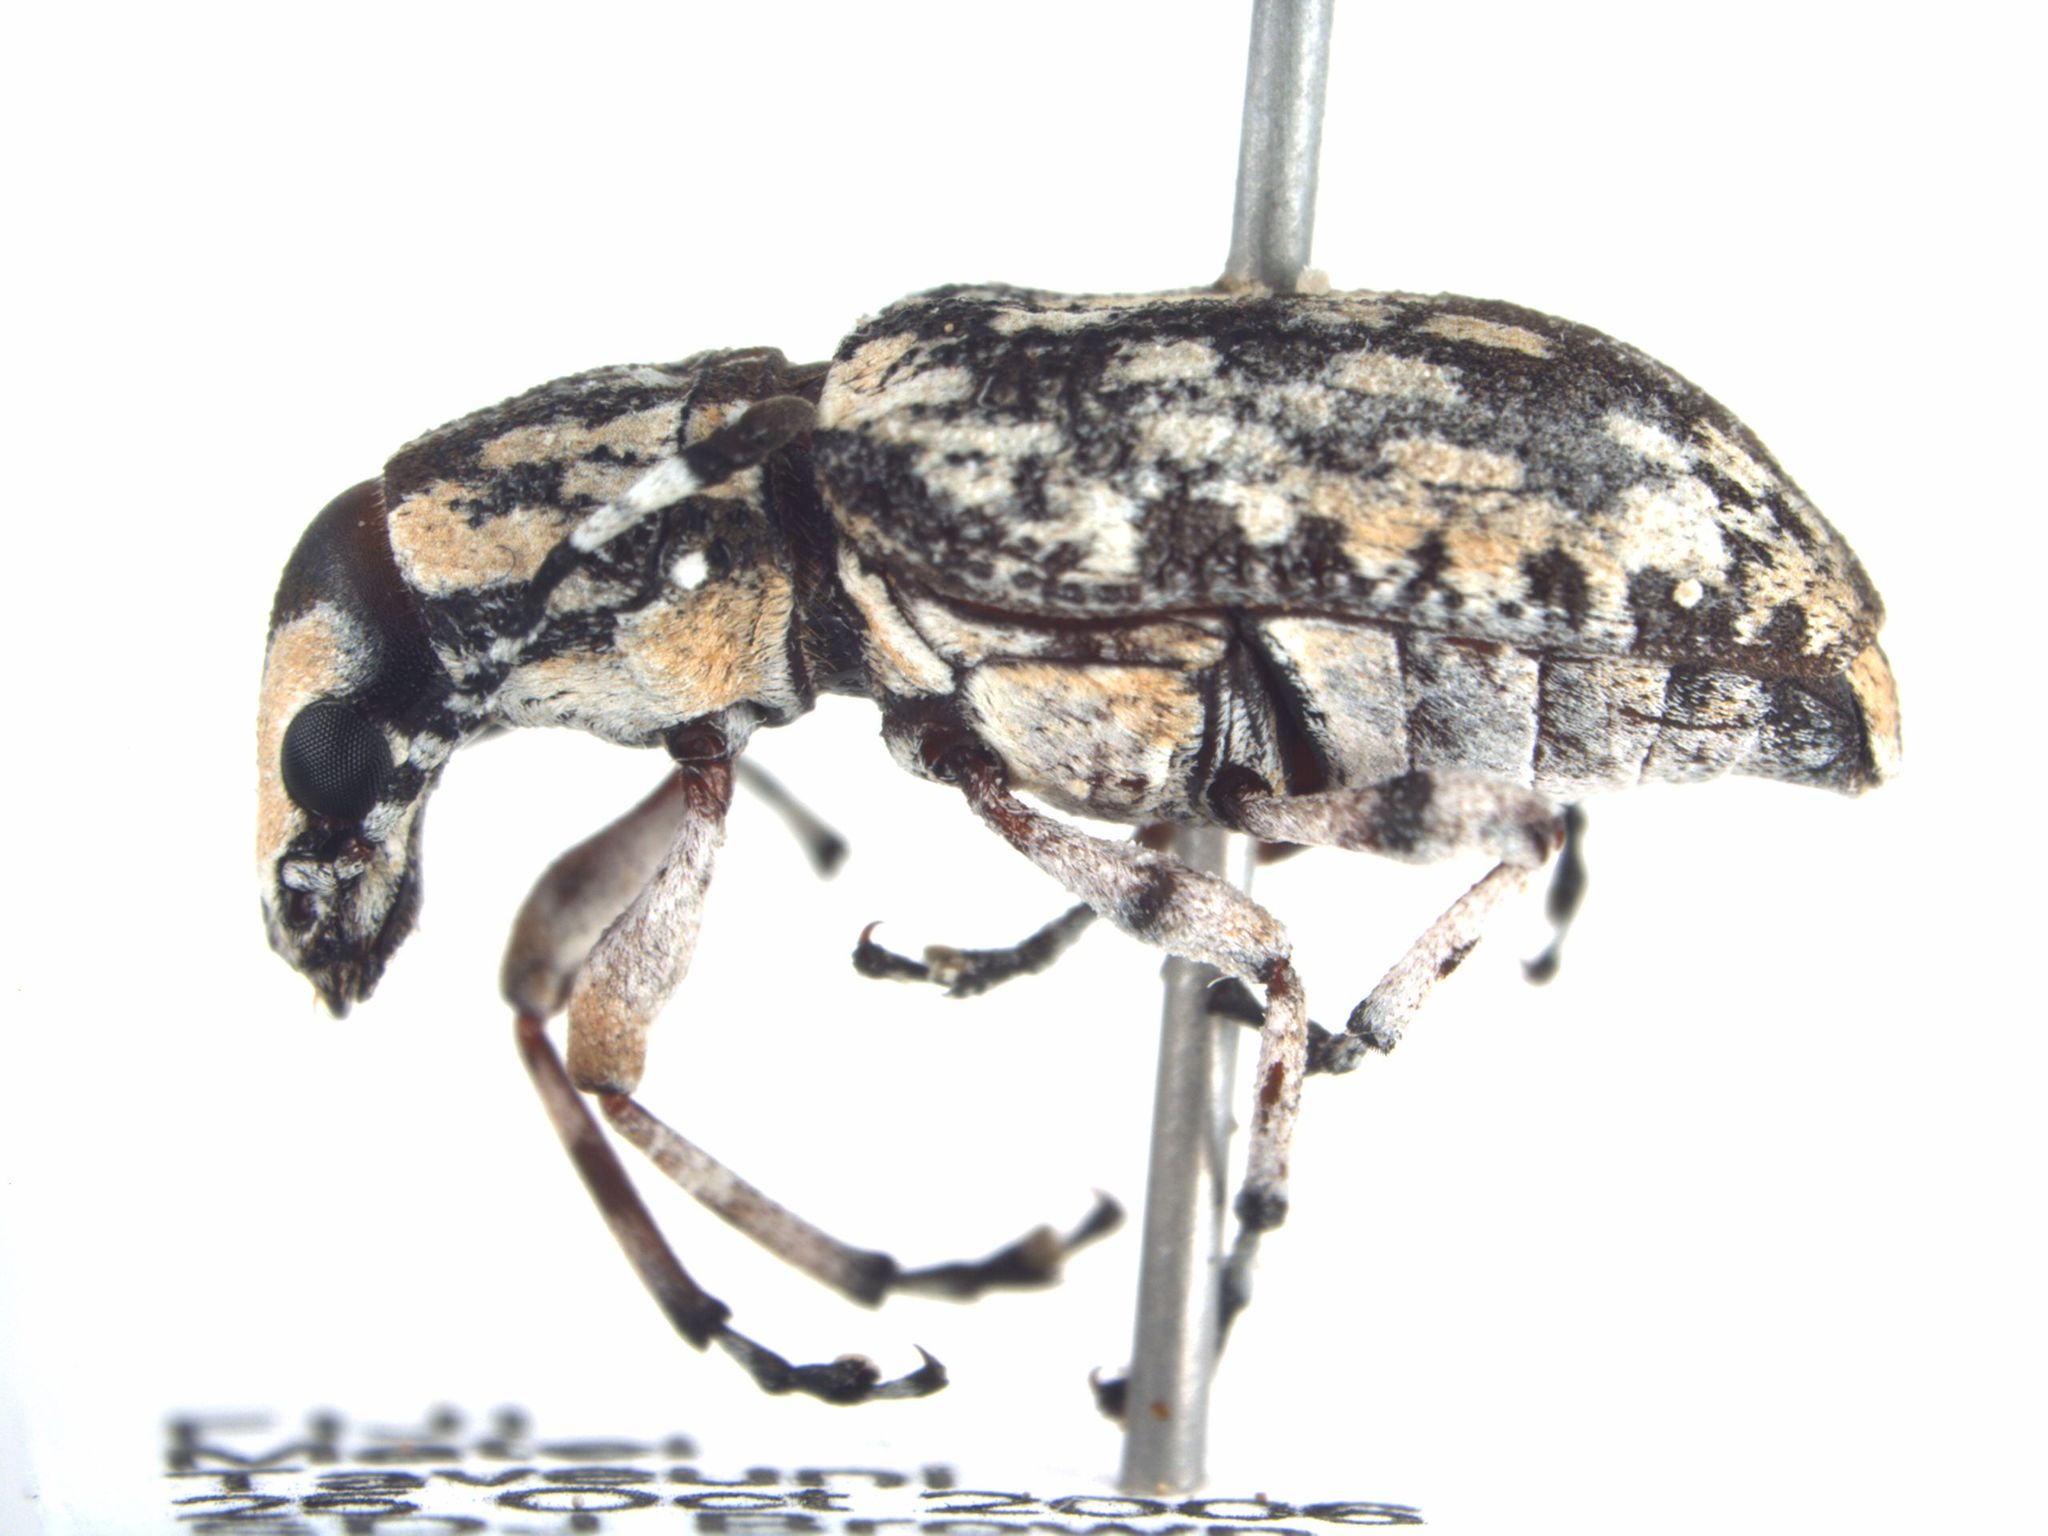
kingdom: Animalia
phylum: Arthropoda
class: Insecta
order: Coleoptera
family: Anthribidae
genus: Cerambyrhynchus
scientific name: Cerambyrhynchus schonherri
